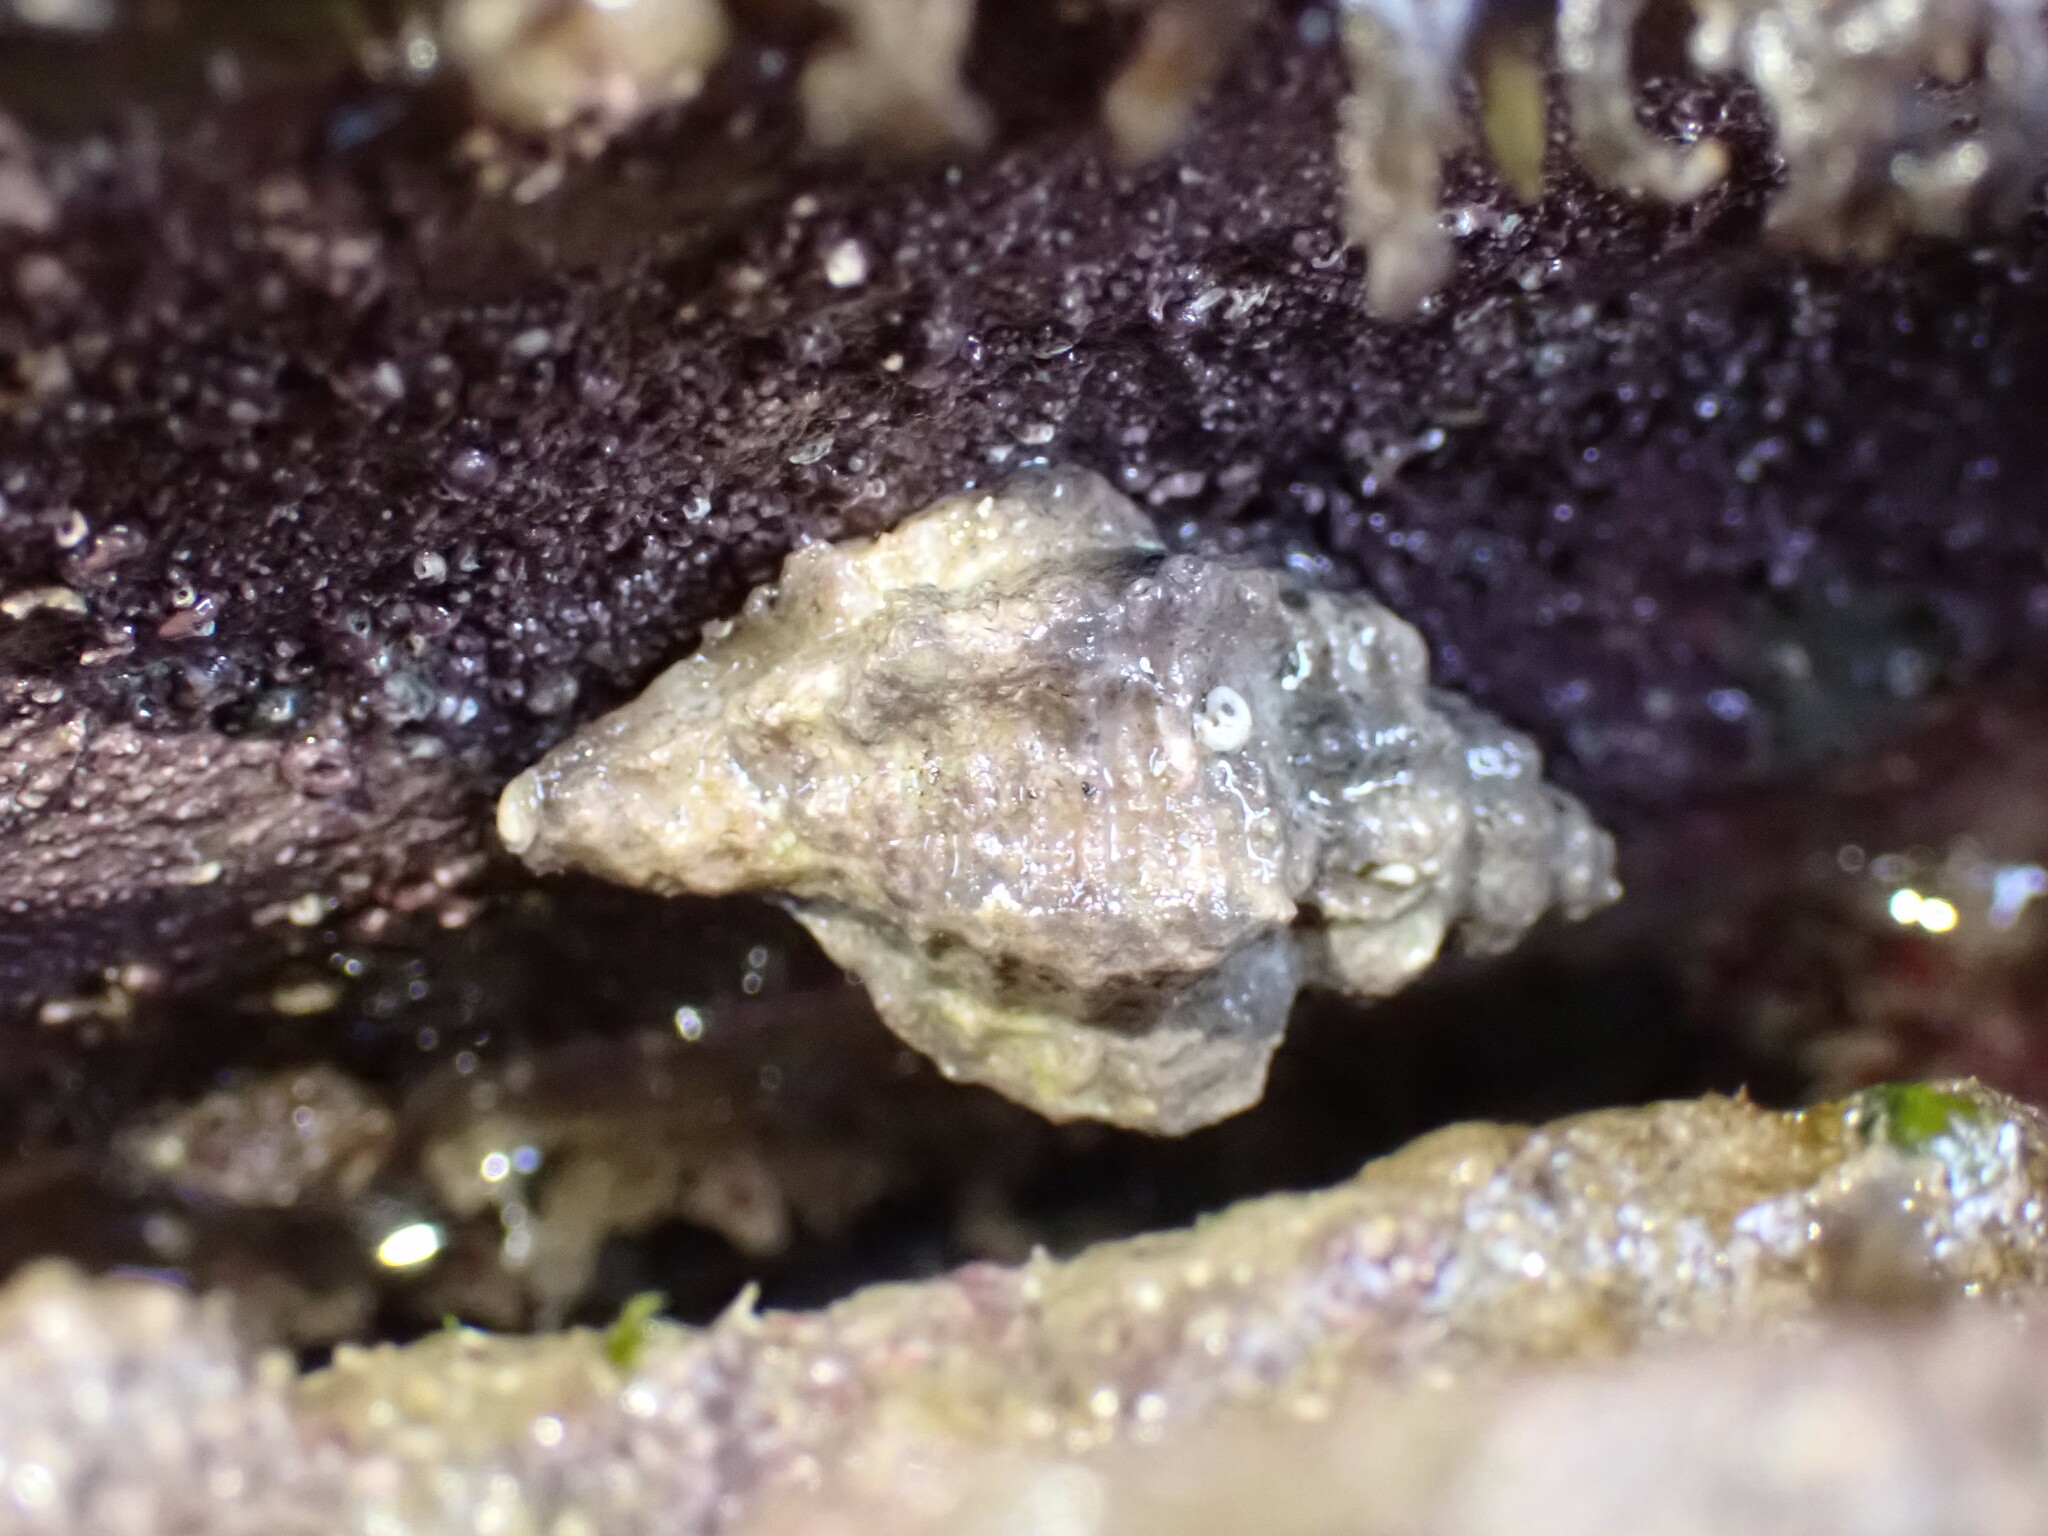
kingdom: Animalia
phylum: Mollusca
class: Gastropoda
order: Neogastropoda
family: Muricidae
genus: Ocenebra
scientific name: Ocenebra erinaceus
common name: European sting winkle
